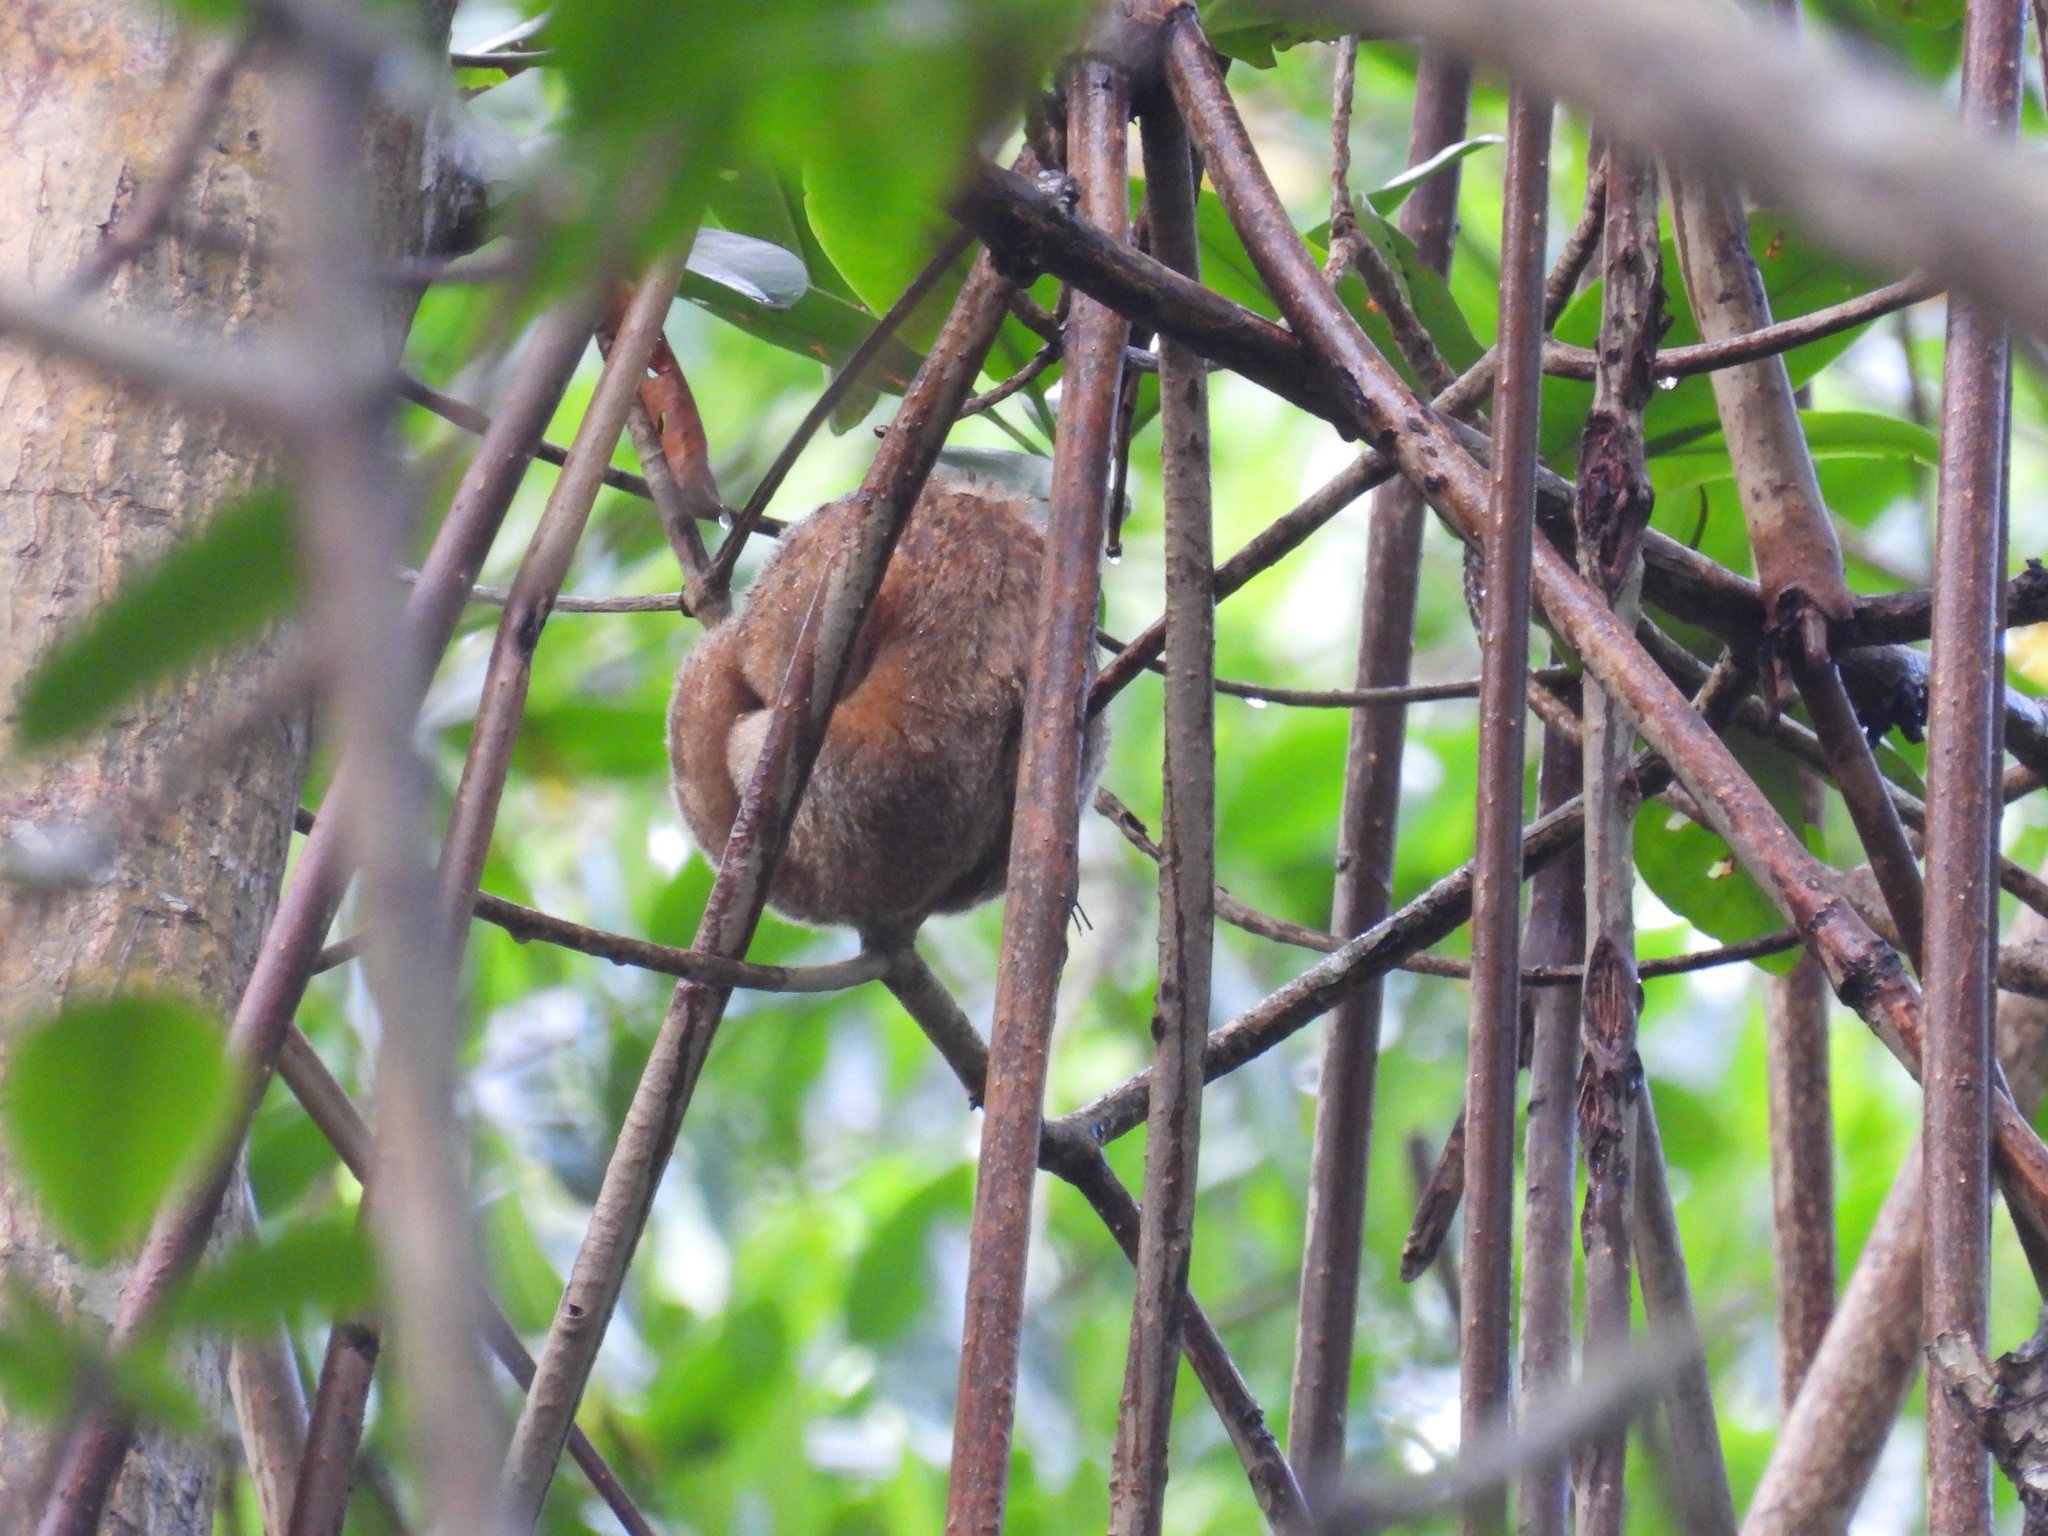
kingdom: Animalia
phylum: Chordata
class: Mammalia
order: Pilosa
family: Cyclopedidae
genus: Cyclopes
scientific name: Cyclopes didactylus
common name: Silky anteater
